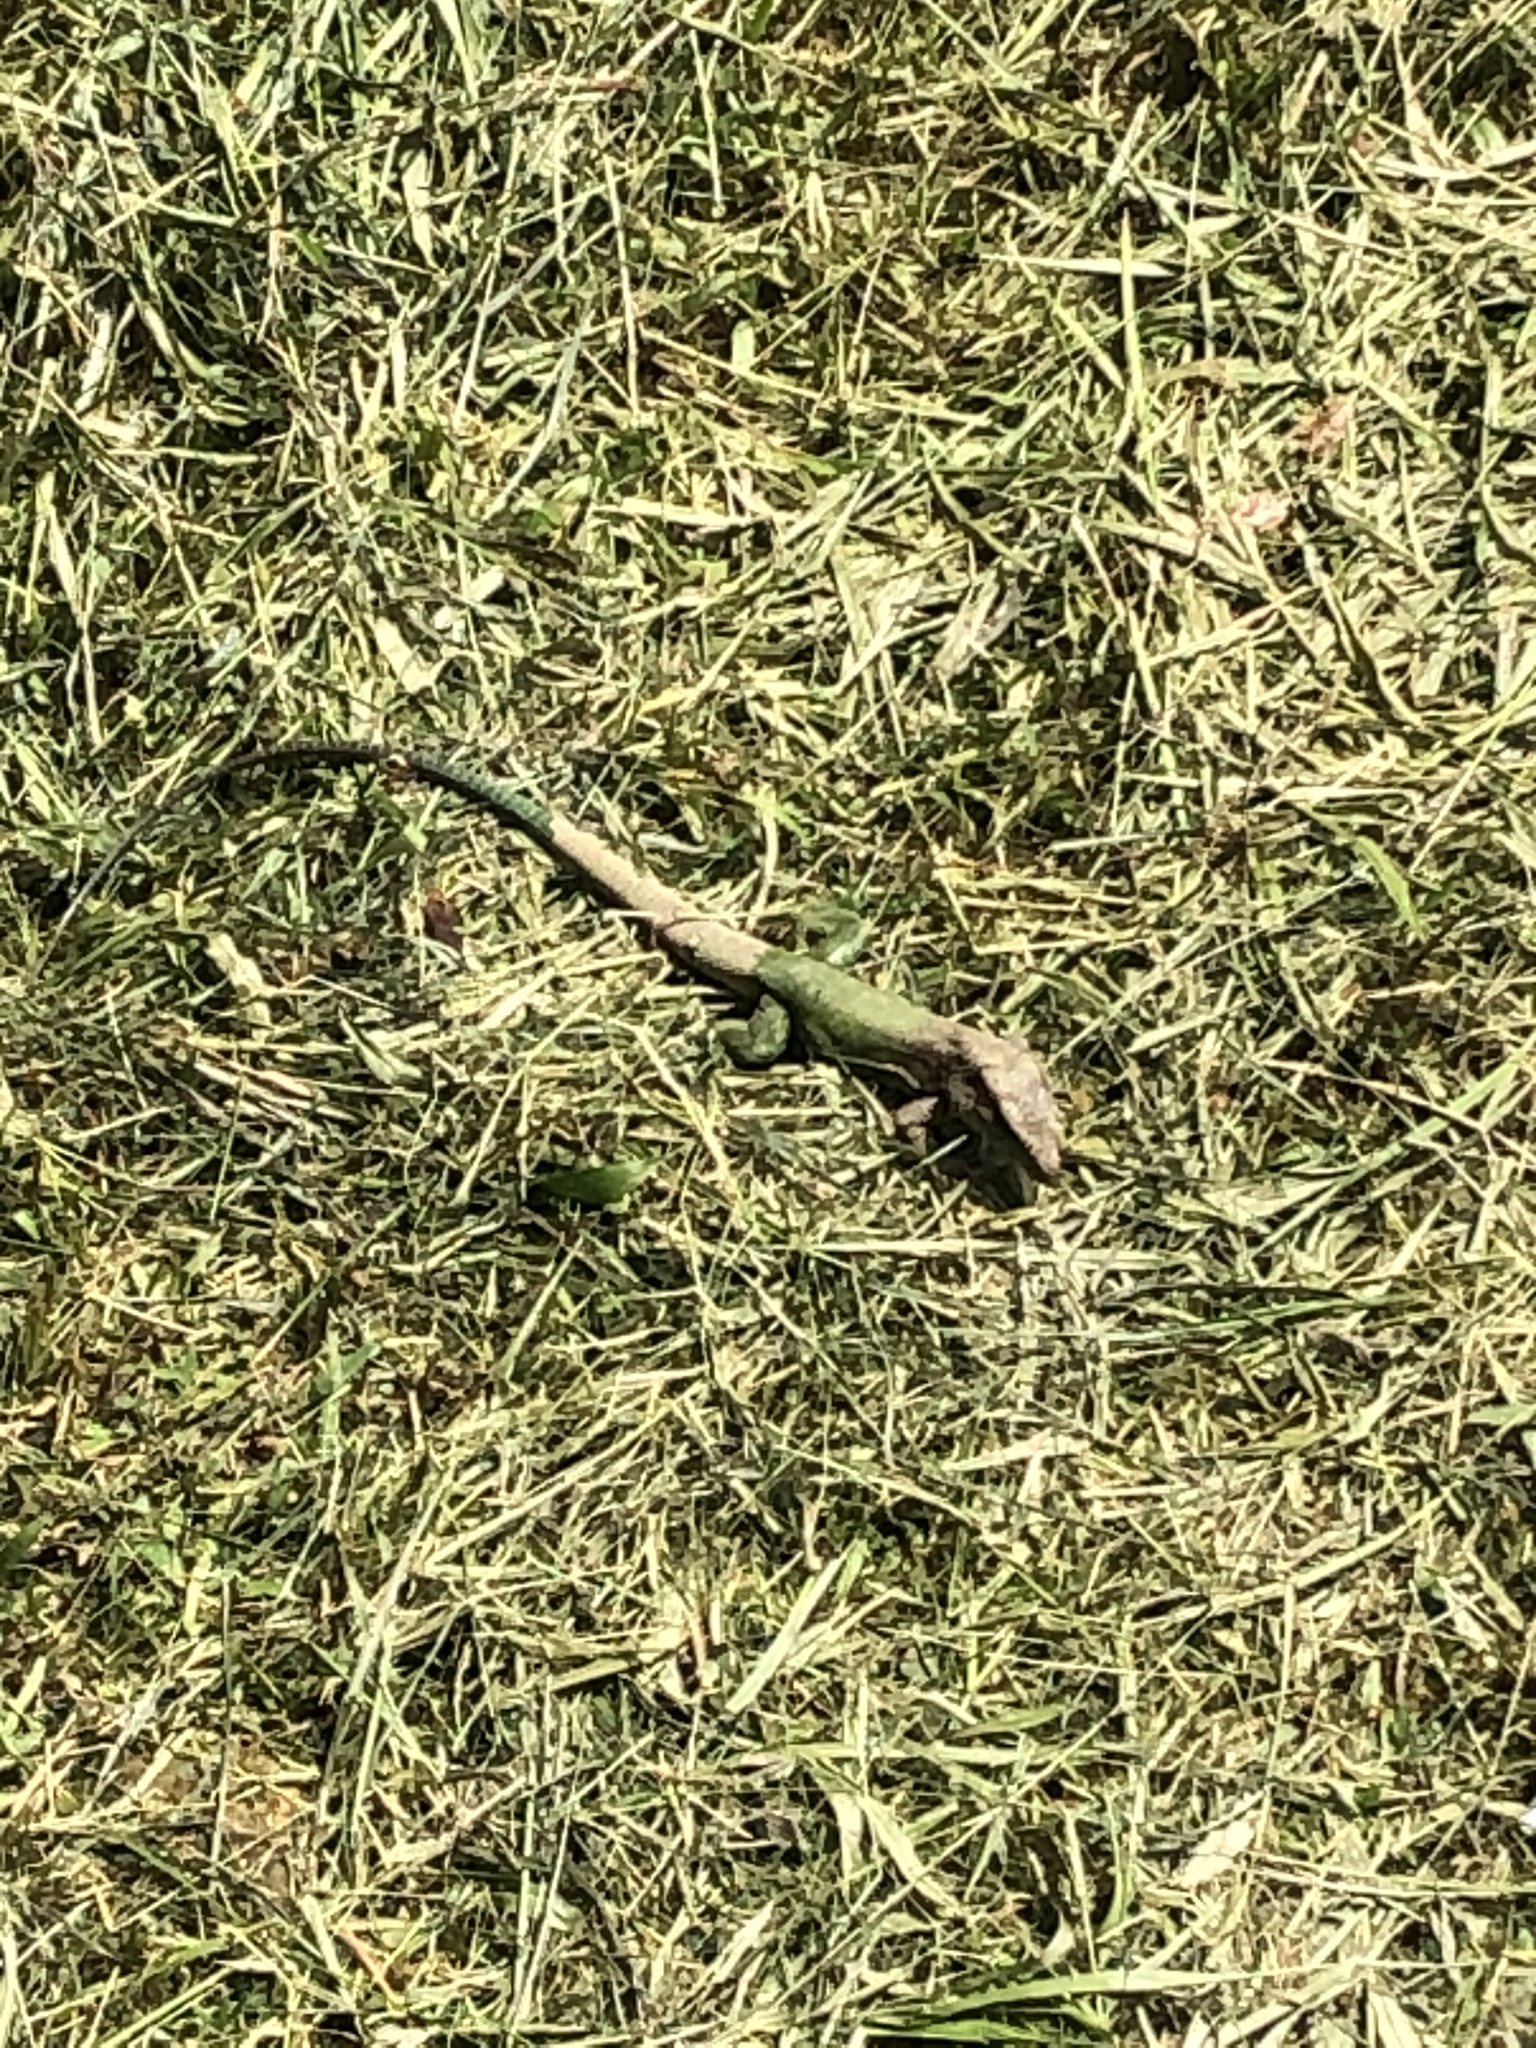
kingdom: Animalia
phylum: Chordata
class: Squamata
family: Teiidae
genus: Ameiva
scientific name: Ameiva ameiva
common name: Giant ameiva
